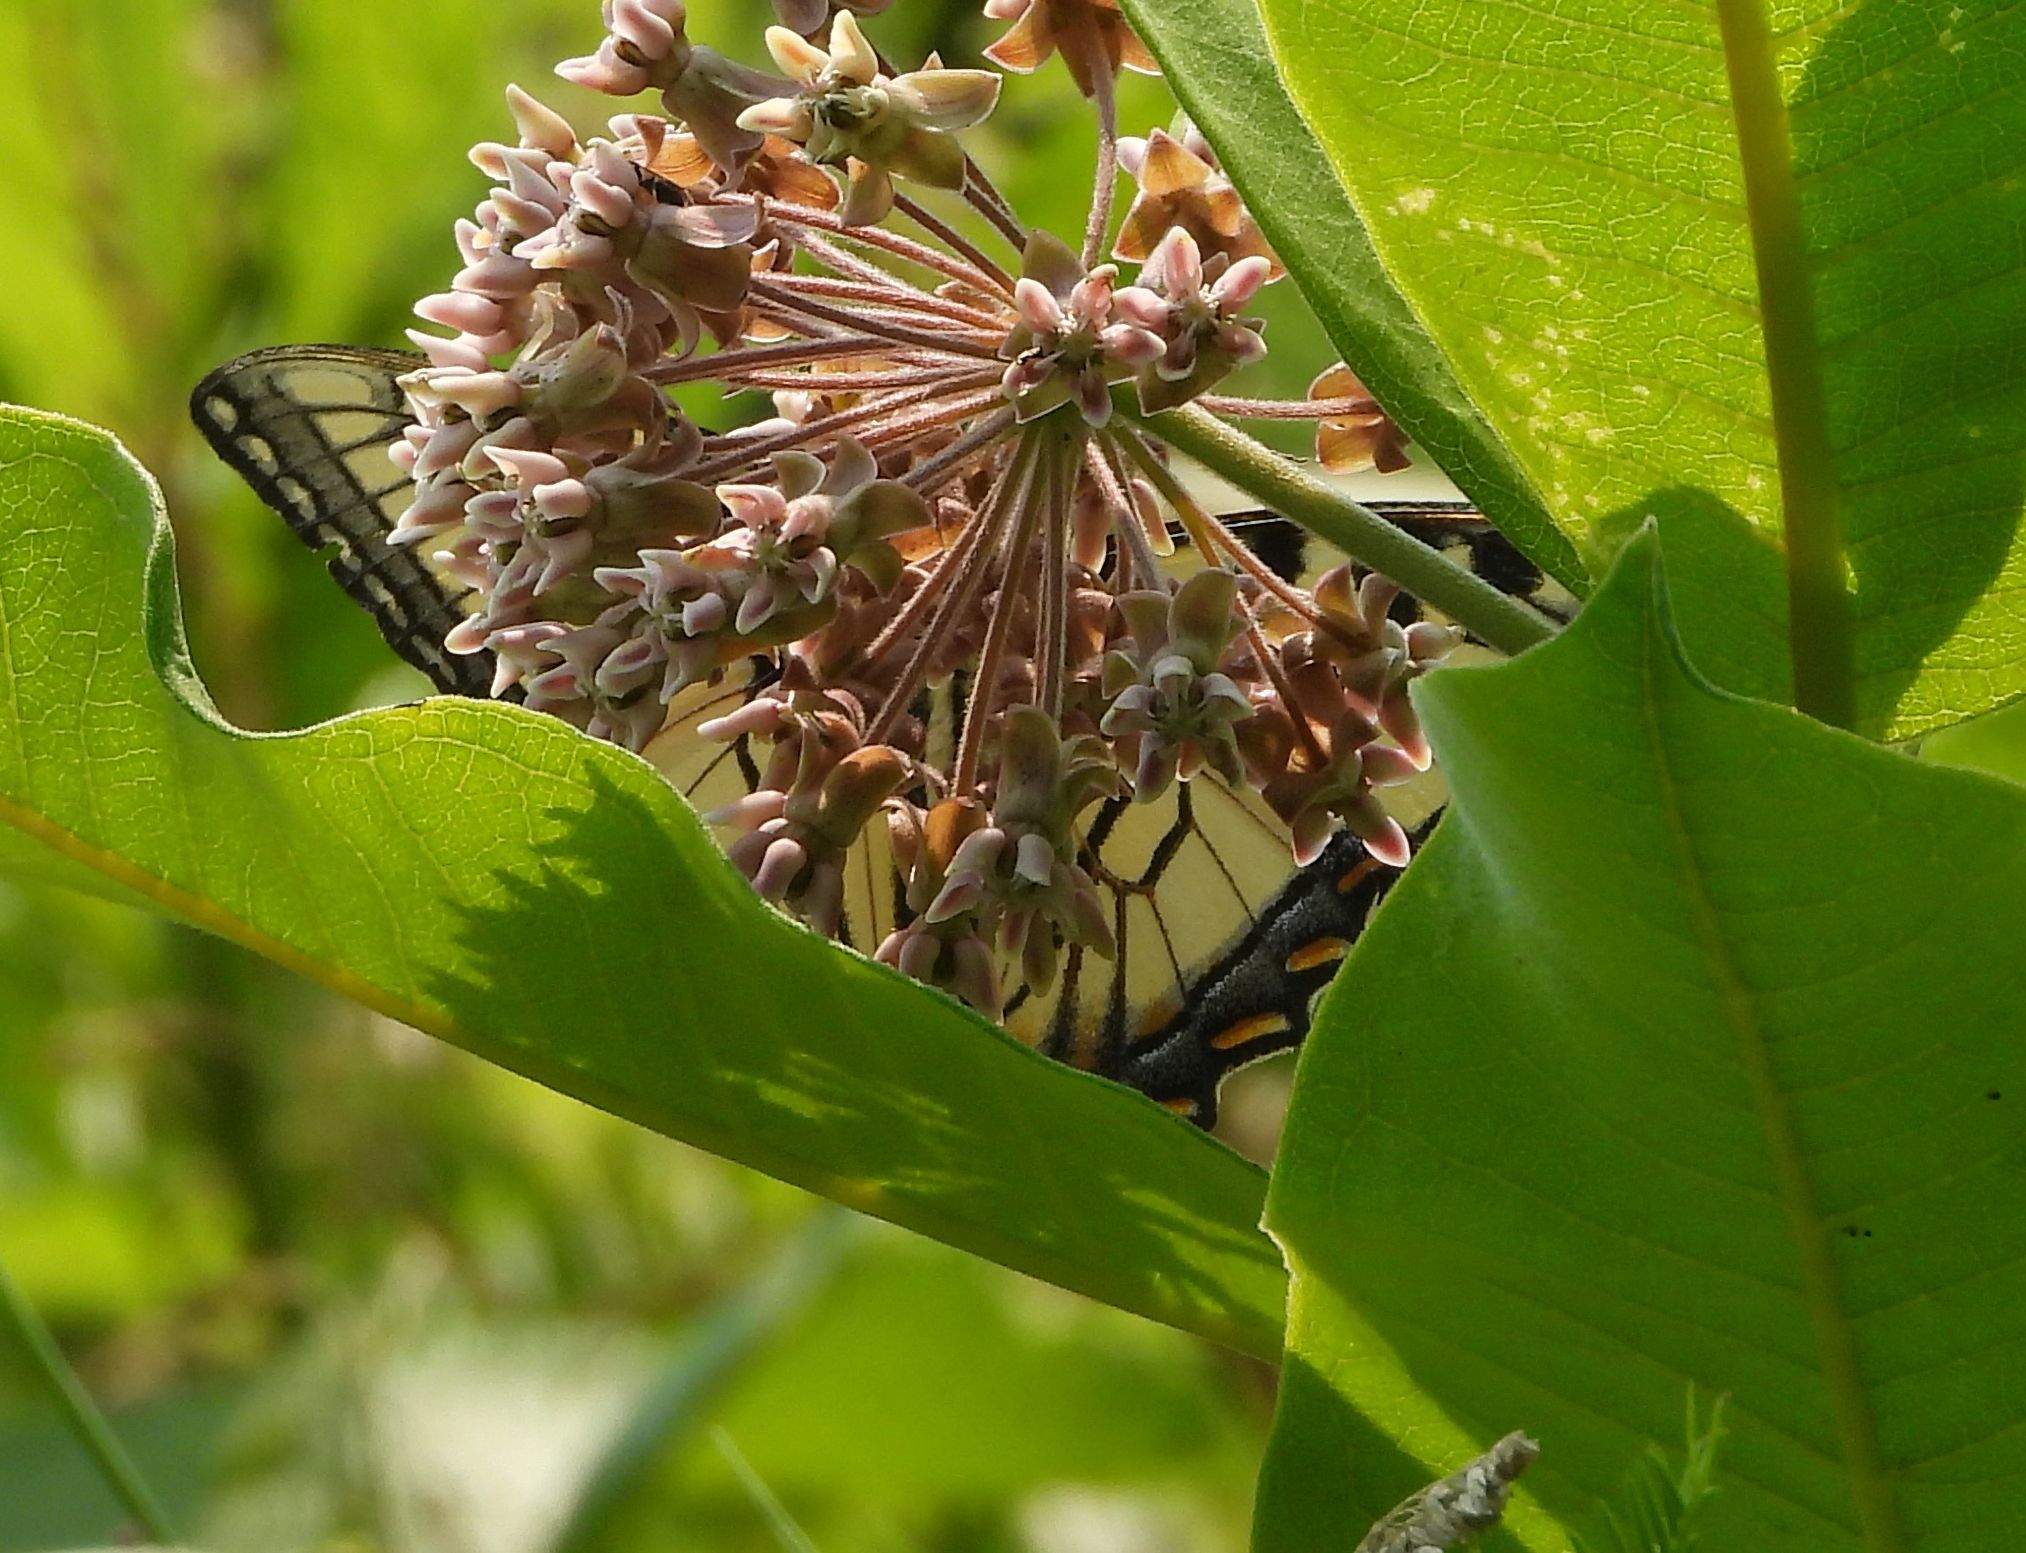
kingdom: Animalia
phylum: Arthropoda
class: Insecta
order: Lepidoptera
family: Papilionidae
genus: Papilio
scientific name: Papilio
